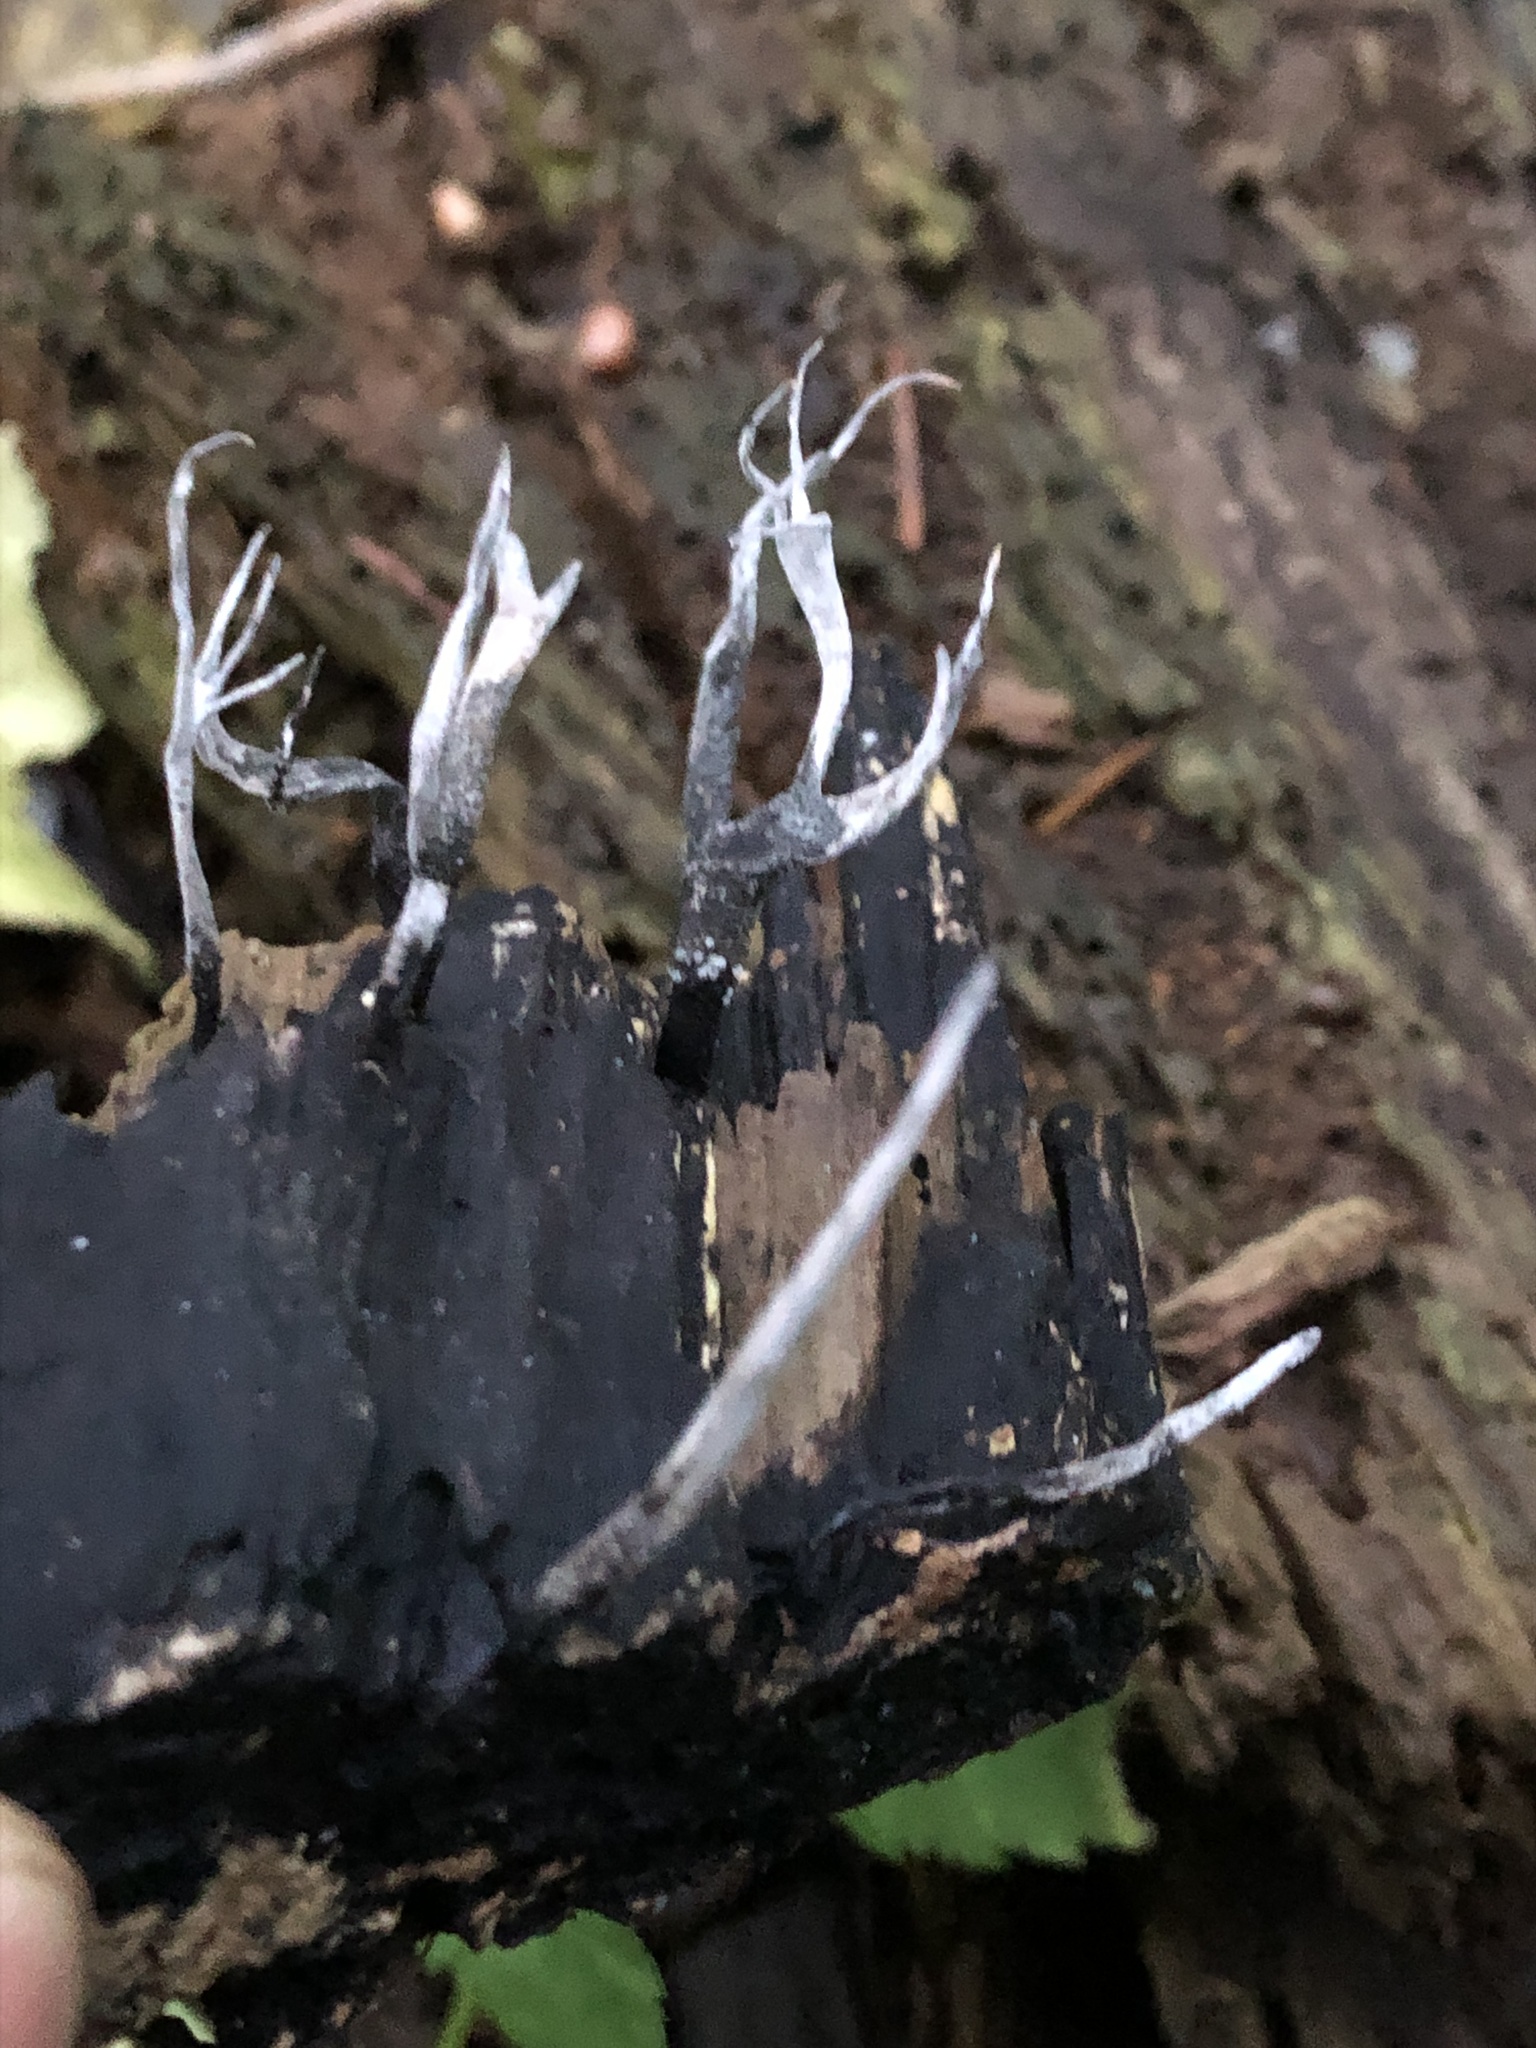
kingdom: Fungi
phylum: Ascomycota
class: Sordariomycetes
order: Xylariales
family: Xylariaceae
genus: Xylaria
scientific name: Xylaria hypoxylon
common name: Candle-snuff fungus
